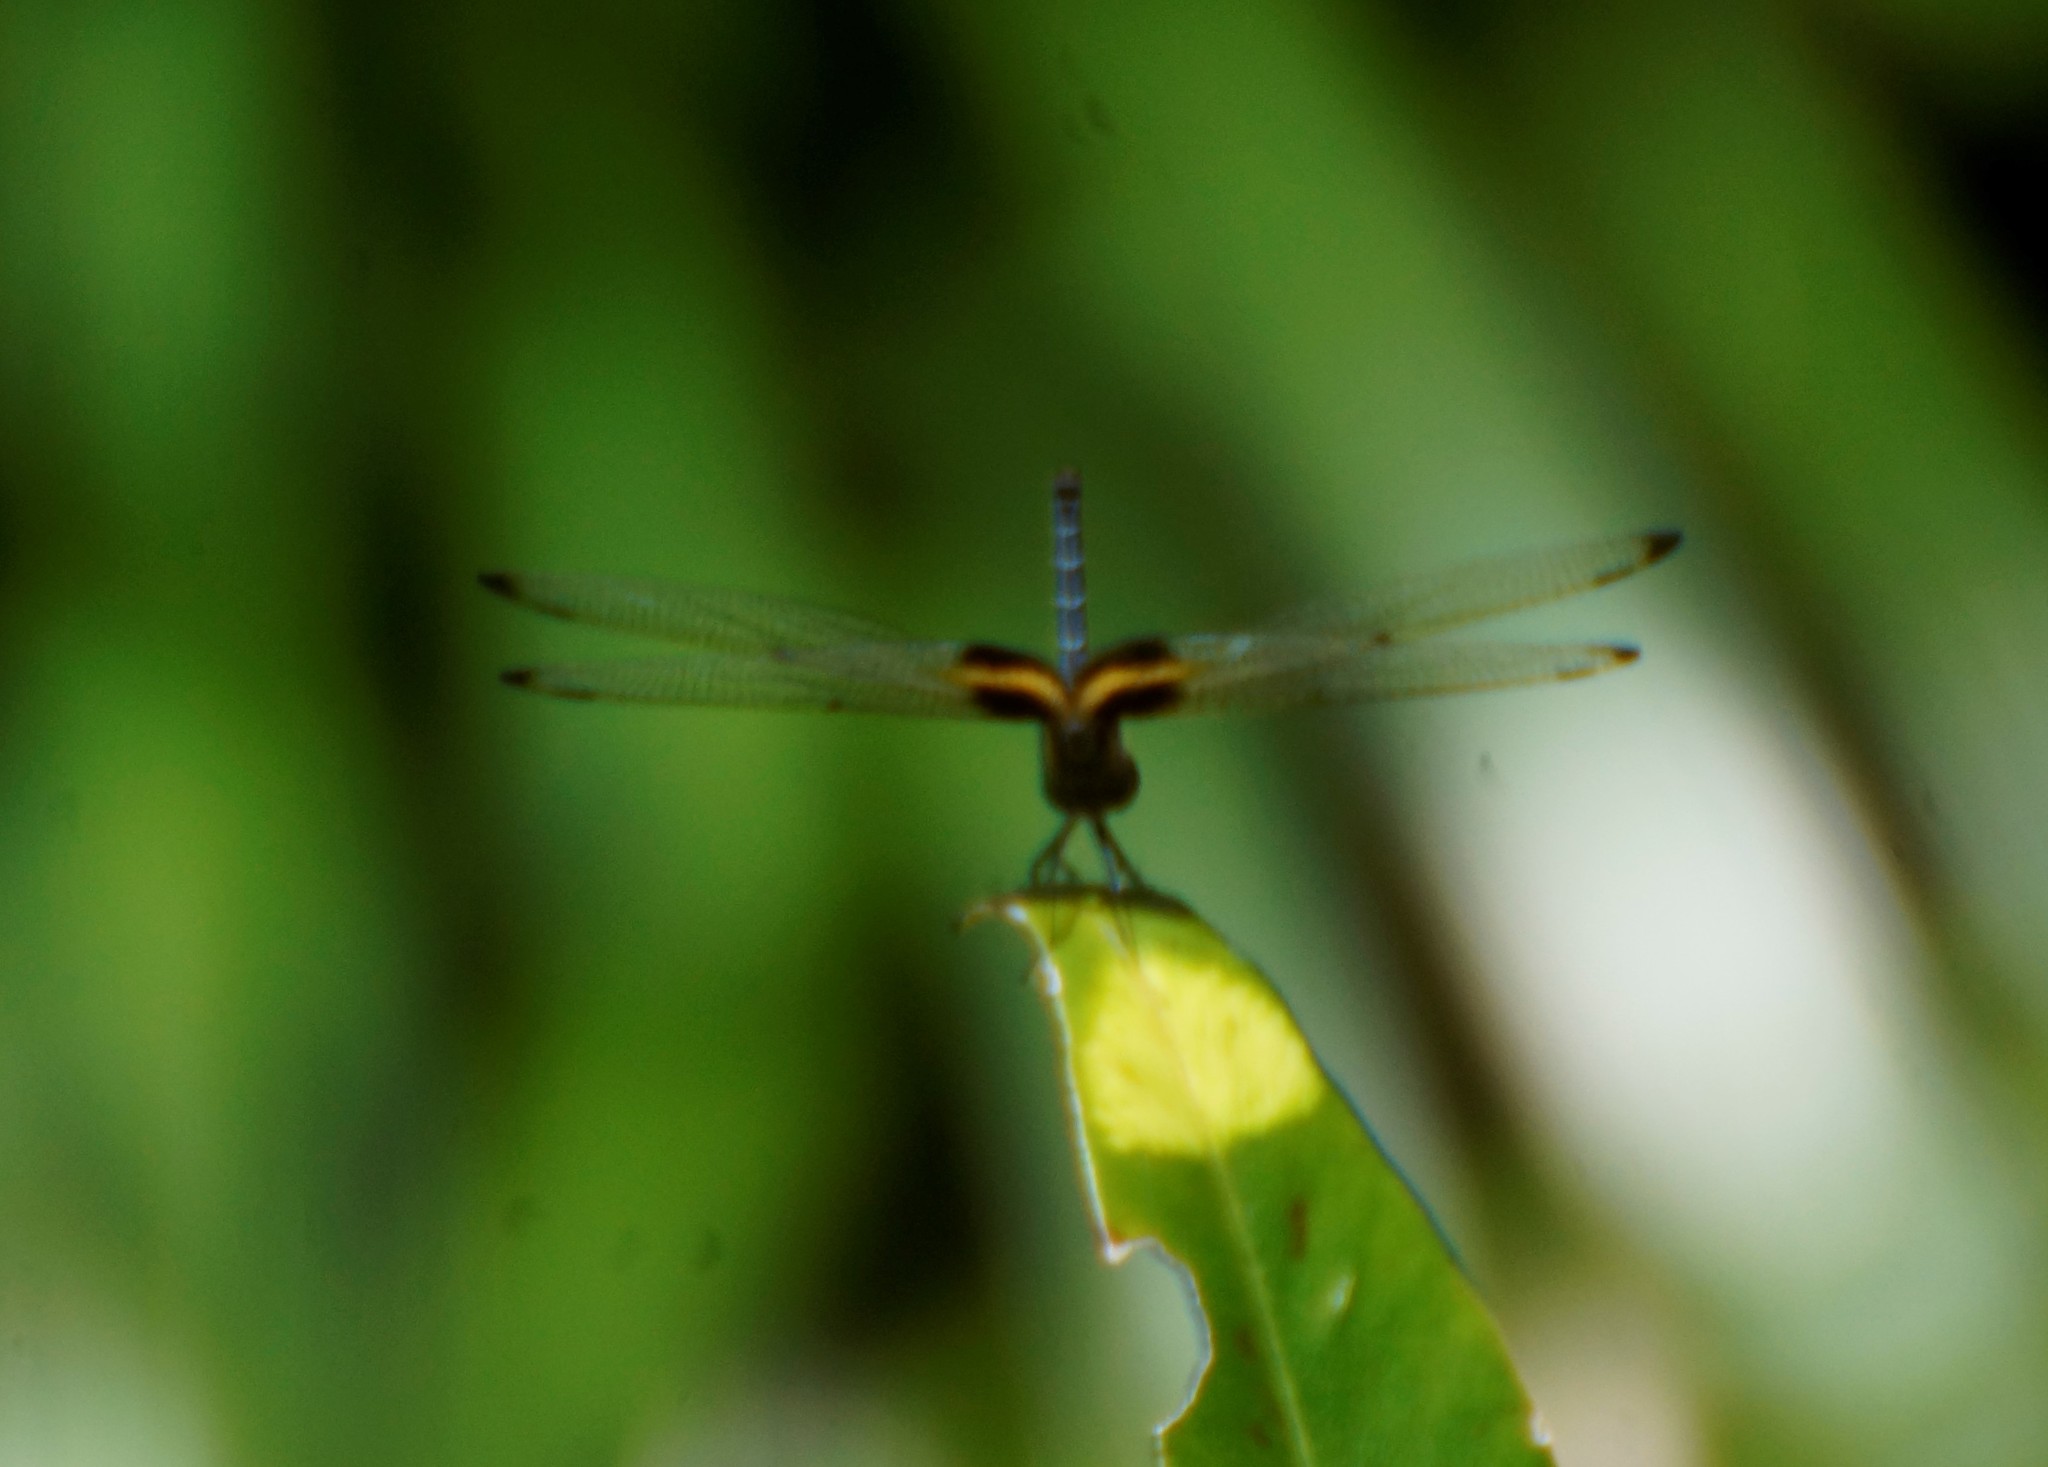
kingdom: Animalia
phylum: Arthropoda
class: Insecta
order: Odonata
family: Libellulidae
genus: Rhyothemis
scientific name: Rhyothemis phyllis
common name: Yellow-barred flutterer
